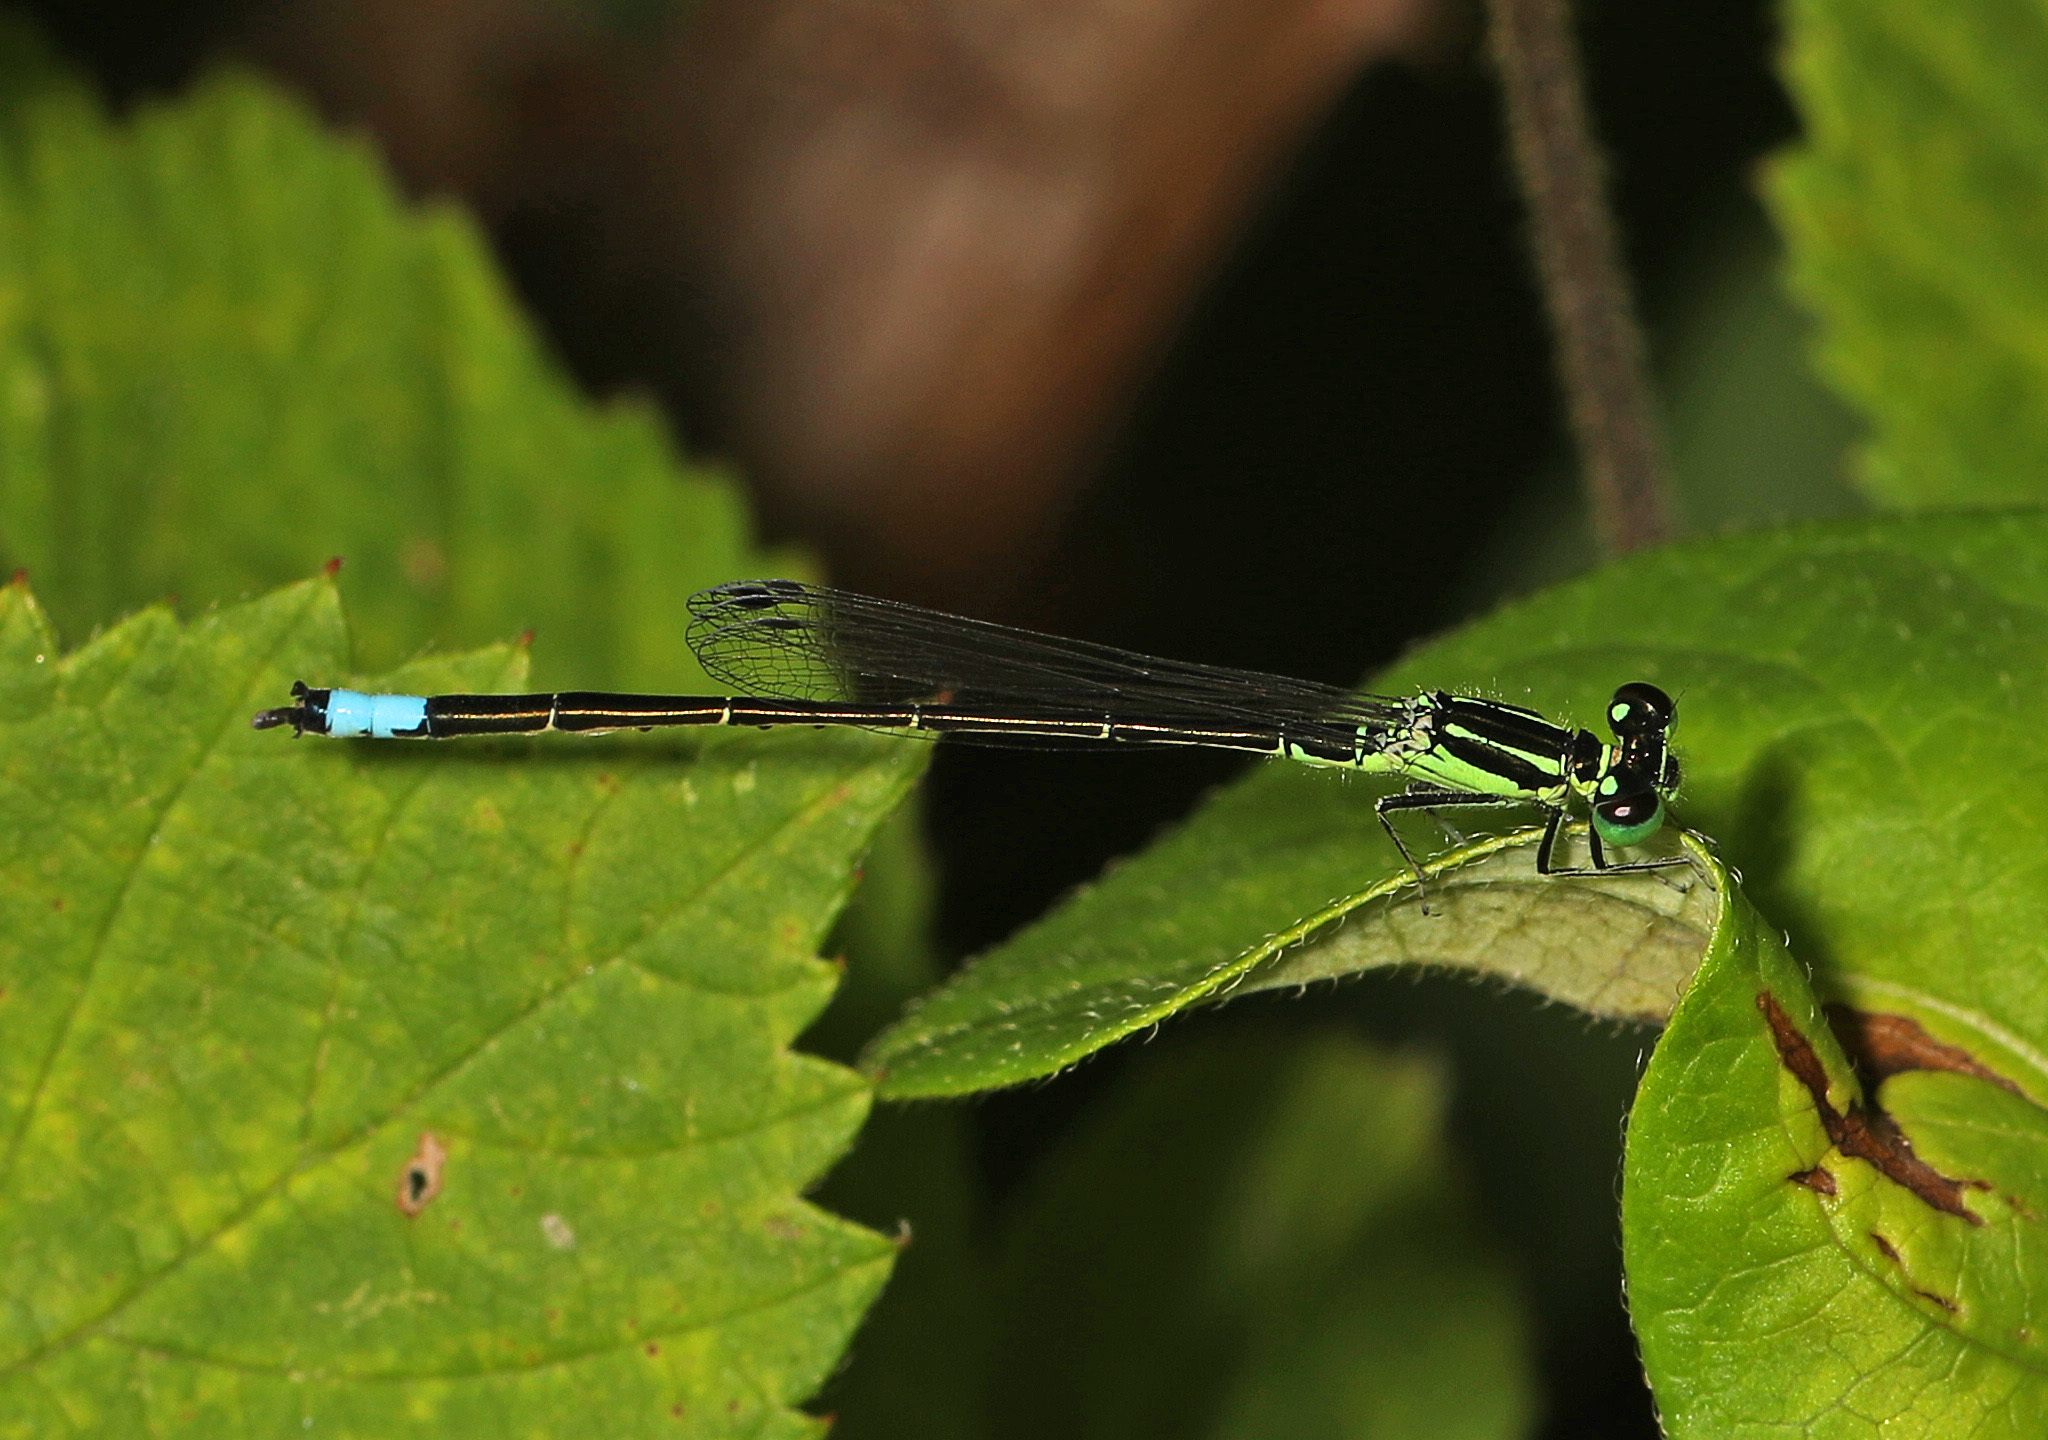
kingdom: Animalia
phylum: Arthropoda
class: Insecta
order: Odonata
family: Coenagrionidae
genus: Ischnura
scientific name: Ischnura verticalis
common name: Eastern forktail
